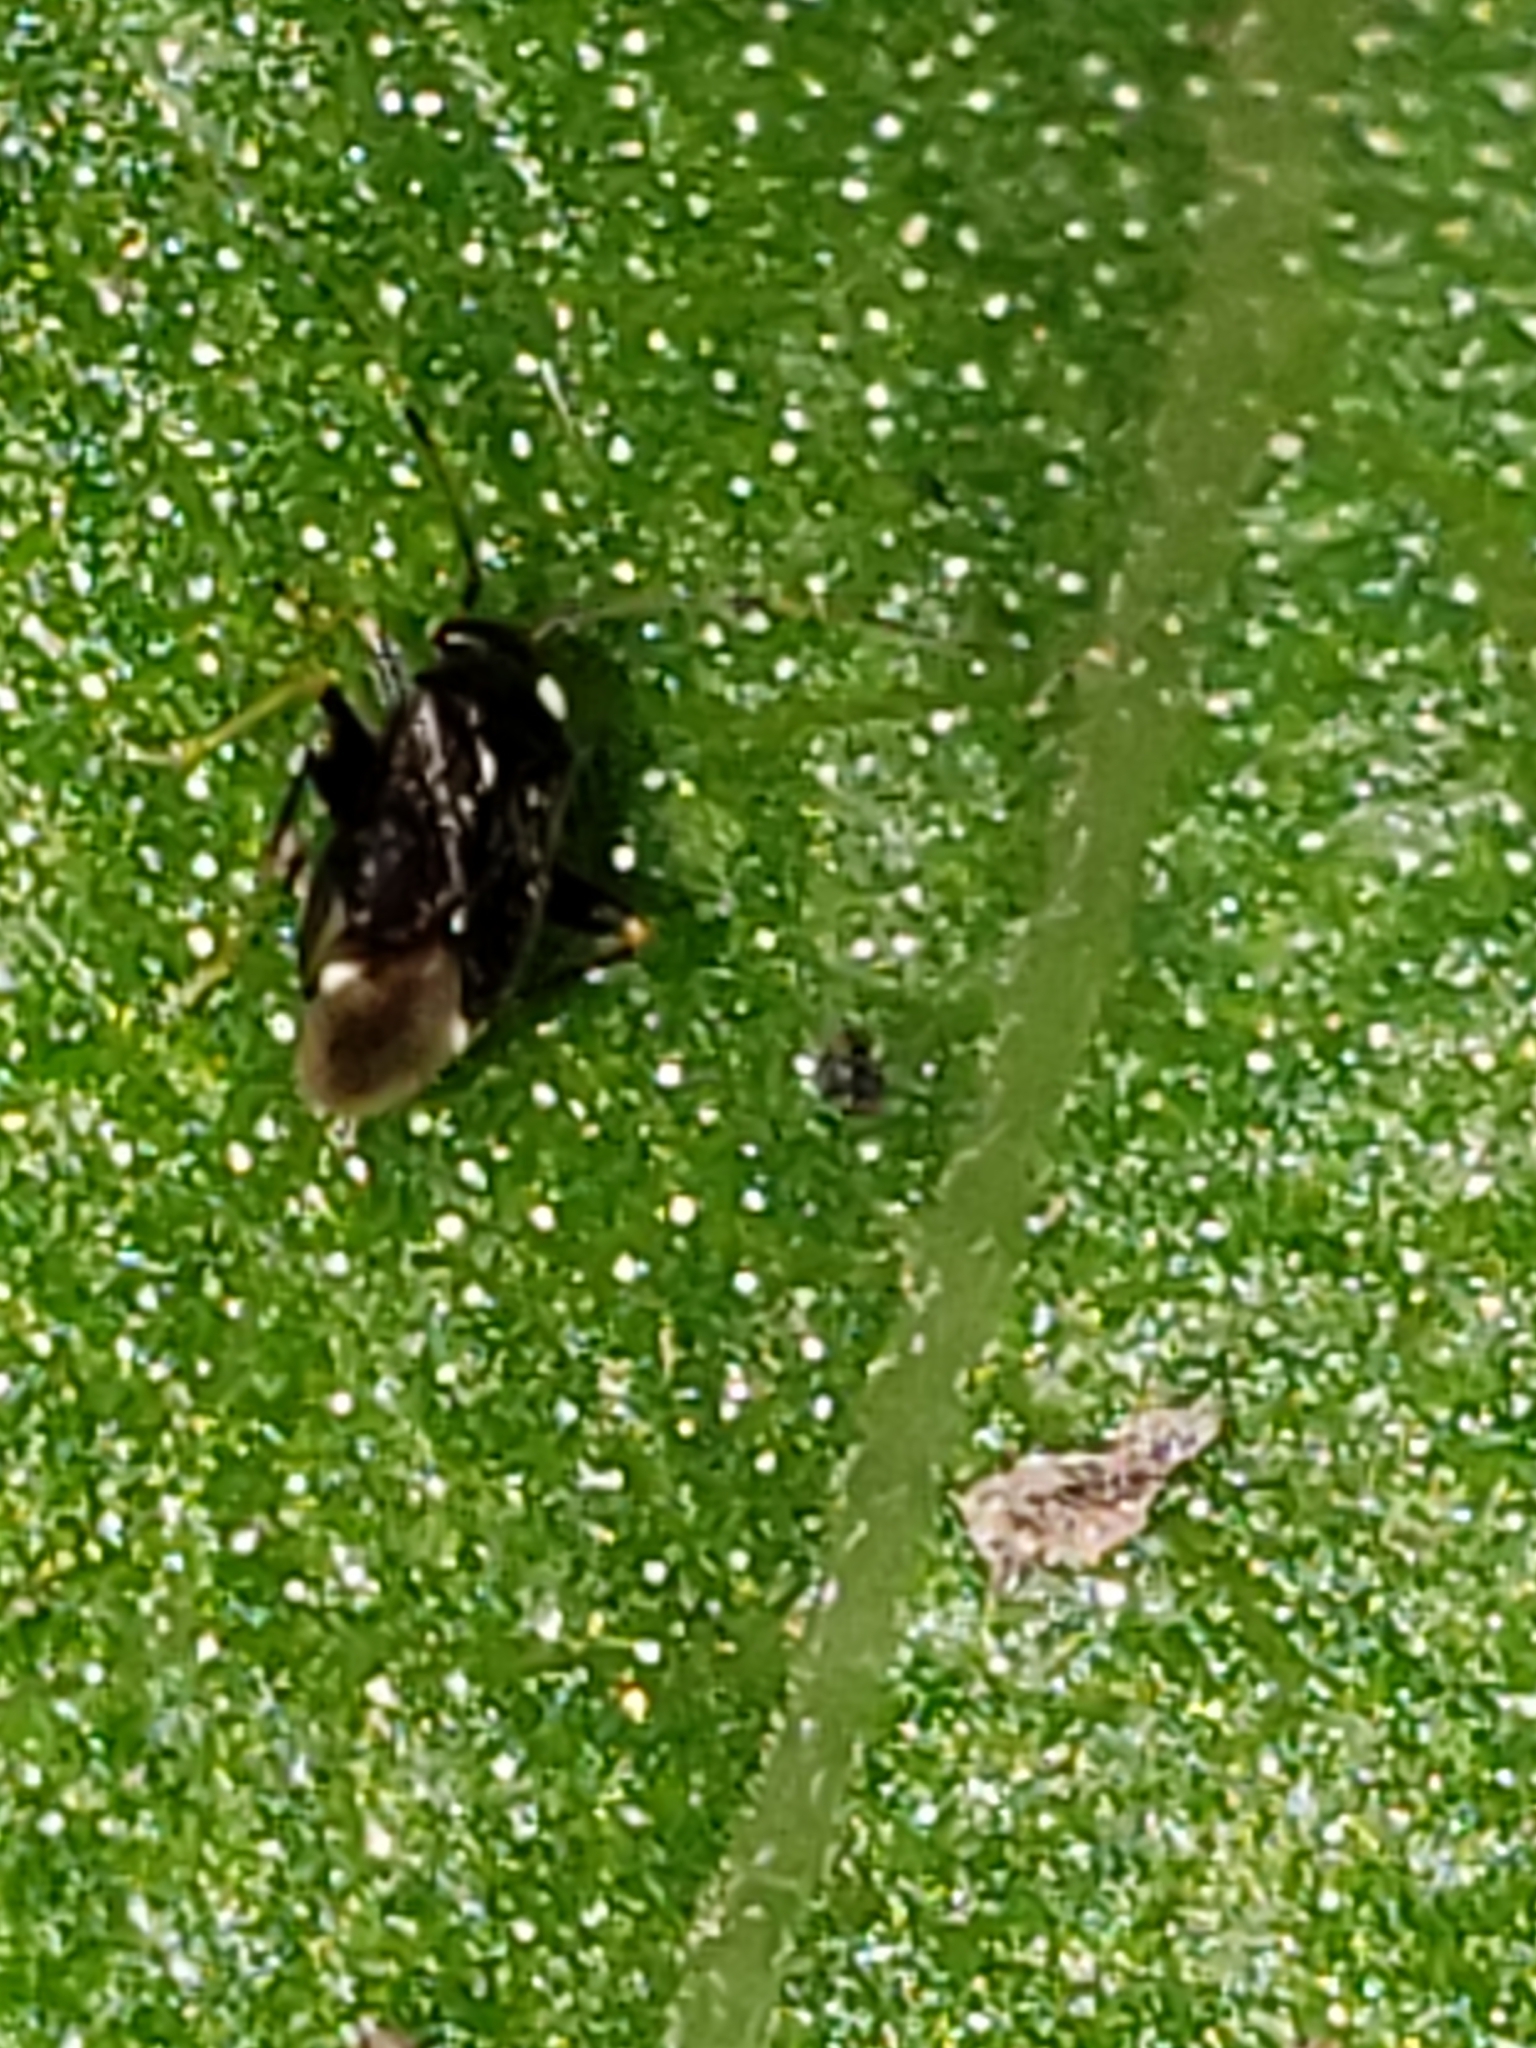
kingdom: Animalia
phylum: Arthropoda
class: Insecta
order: Hemiptera
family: Miridae
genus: Microtechnites
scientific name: Microtechnites bractatus
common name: Garden fleahopper
